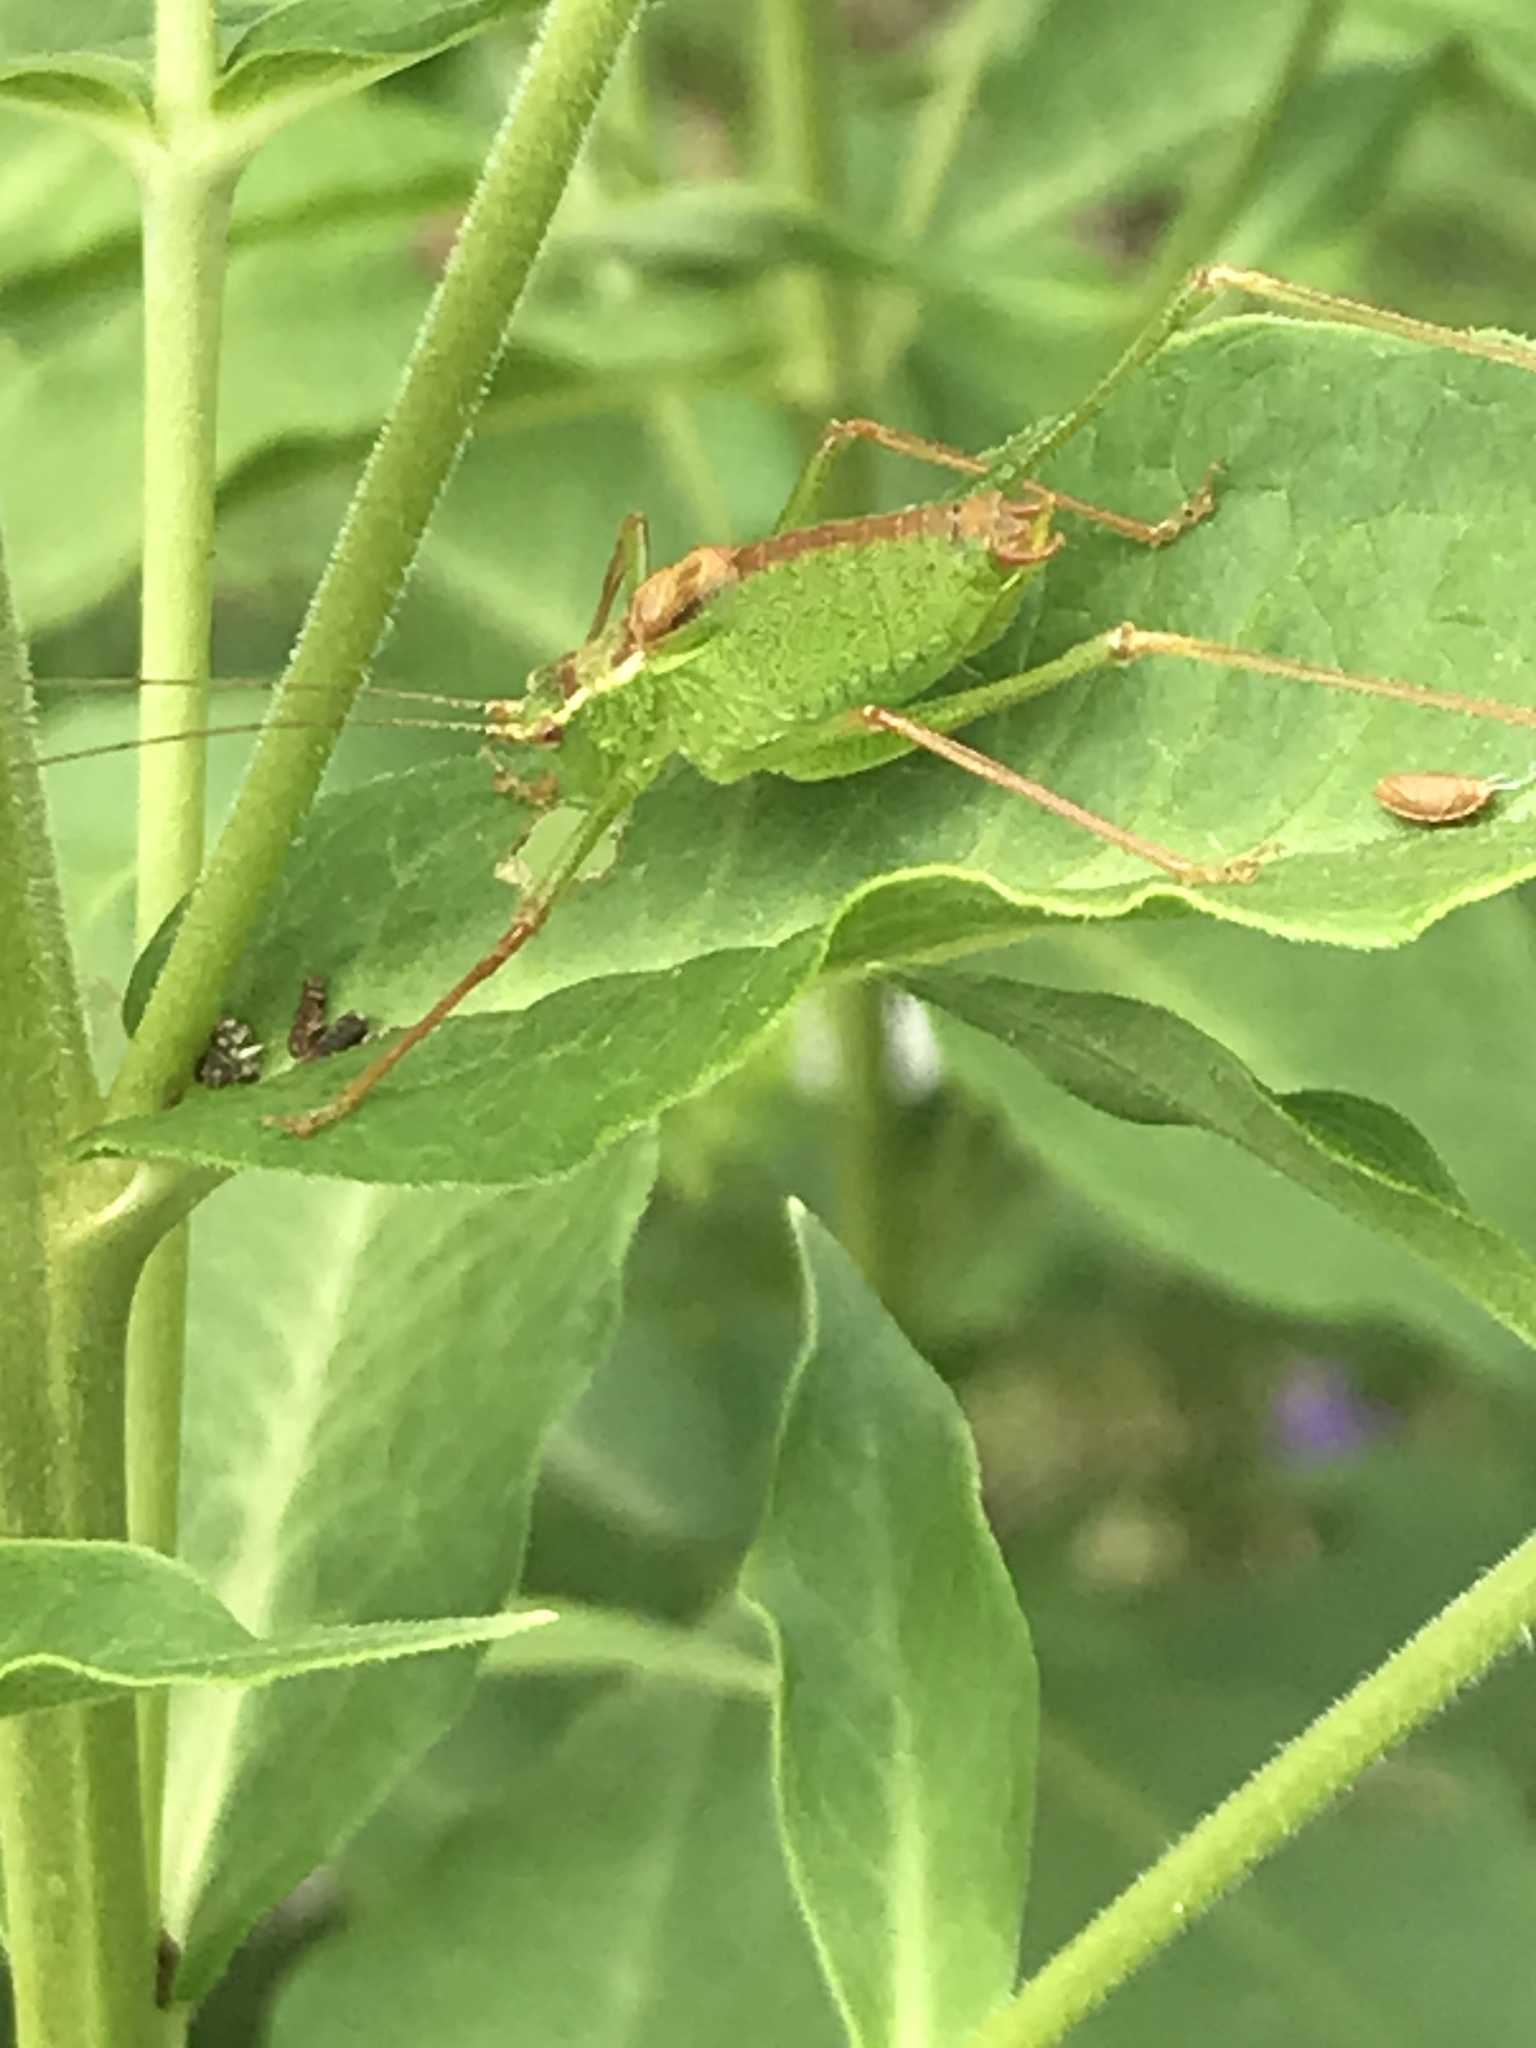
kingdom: Animalia
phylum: Arthropoda
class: Insecta
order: Orthoptera
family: Tettigoniidae
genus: Leptophyes
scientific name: Leptophyes punctatissima
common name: Speckled bush-cricket
